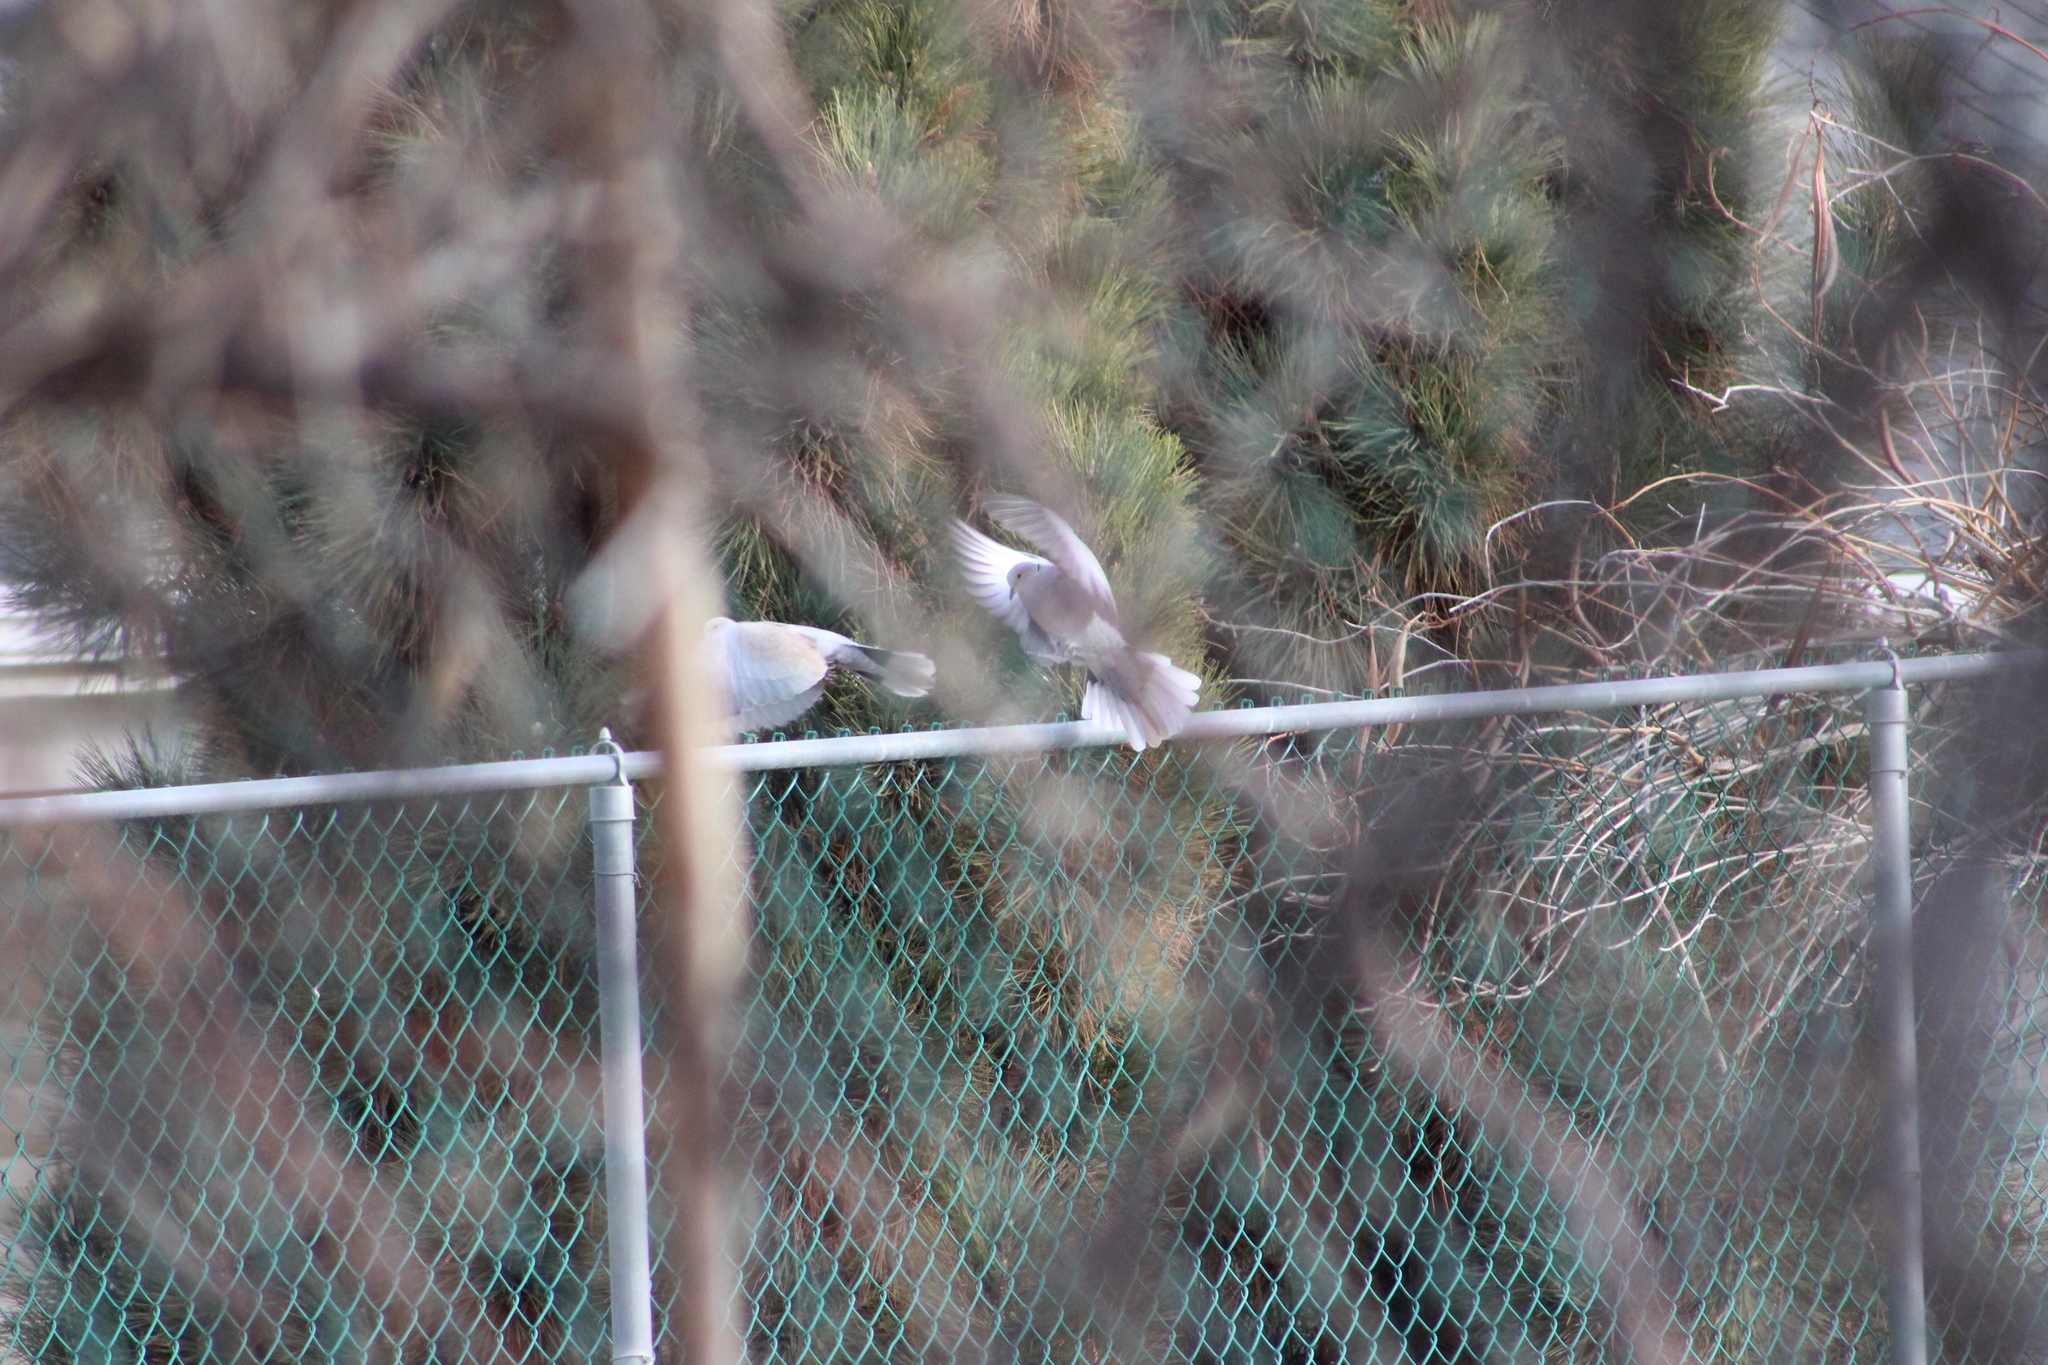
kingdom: Animalia
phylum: Chordata
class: Aves
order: Columbiformes
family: Columbidae
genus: Streptopelia
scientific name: Streptopelia decaocto
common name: Eurasian collared dove
